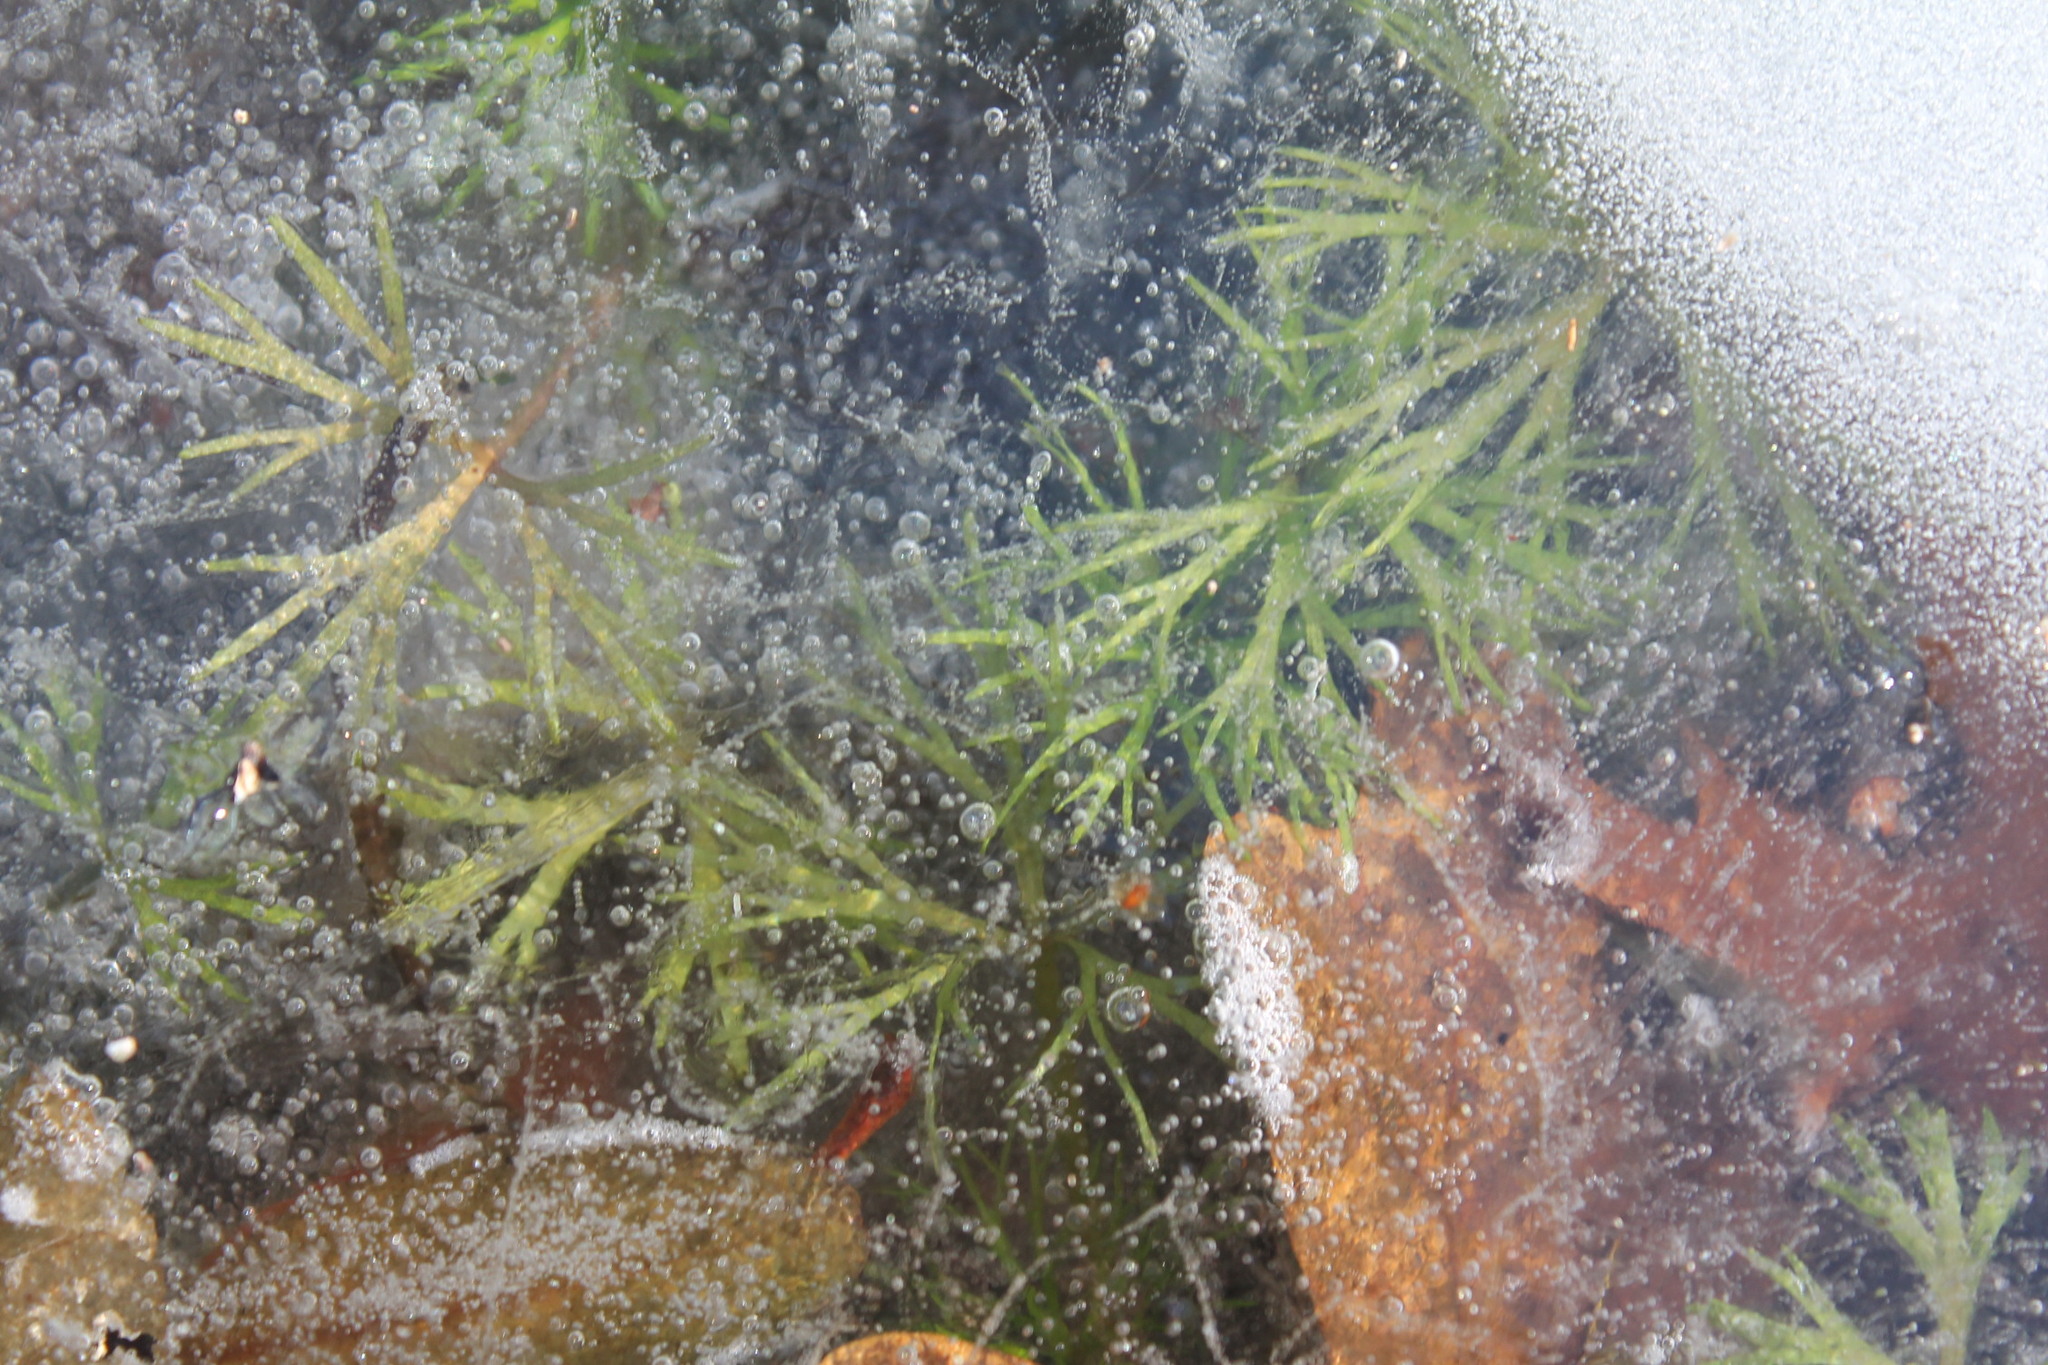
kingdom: Plantae
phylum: Tracheophyta
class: Magnoliopsida
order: Ranunculales
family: Ranunculaceae
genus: Ranunculus
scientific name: Ranunculus flabellaris
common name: Yellow water-crowfoot
